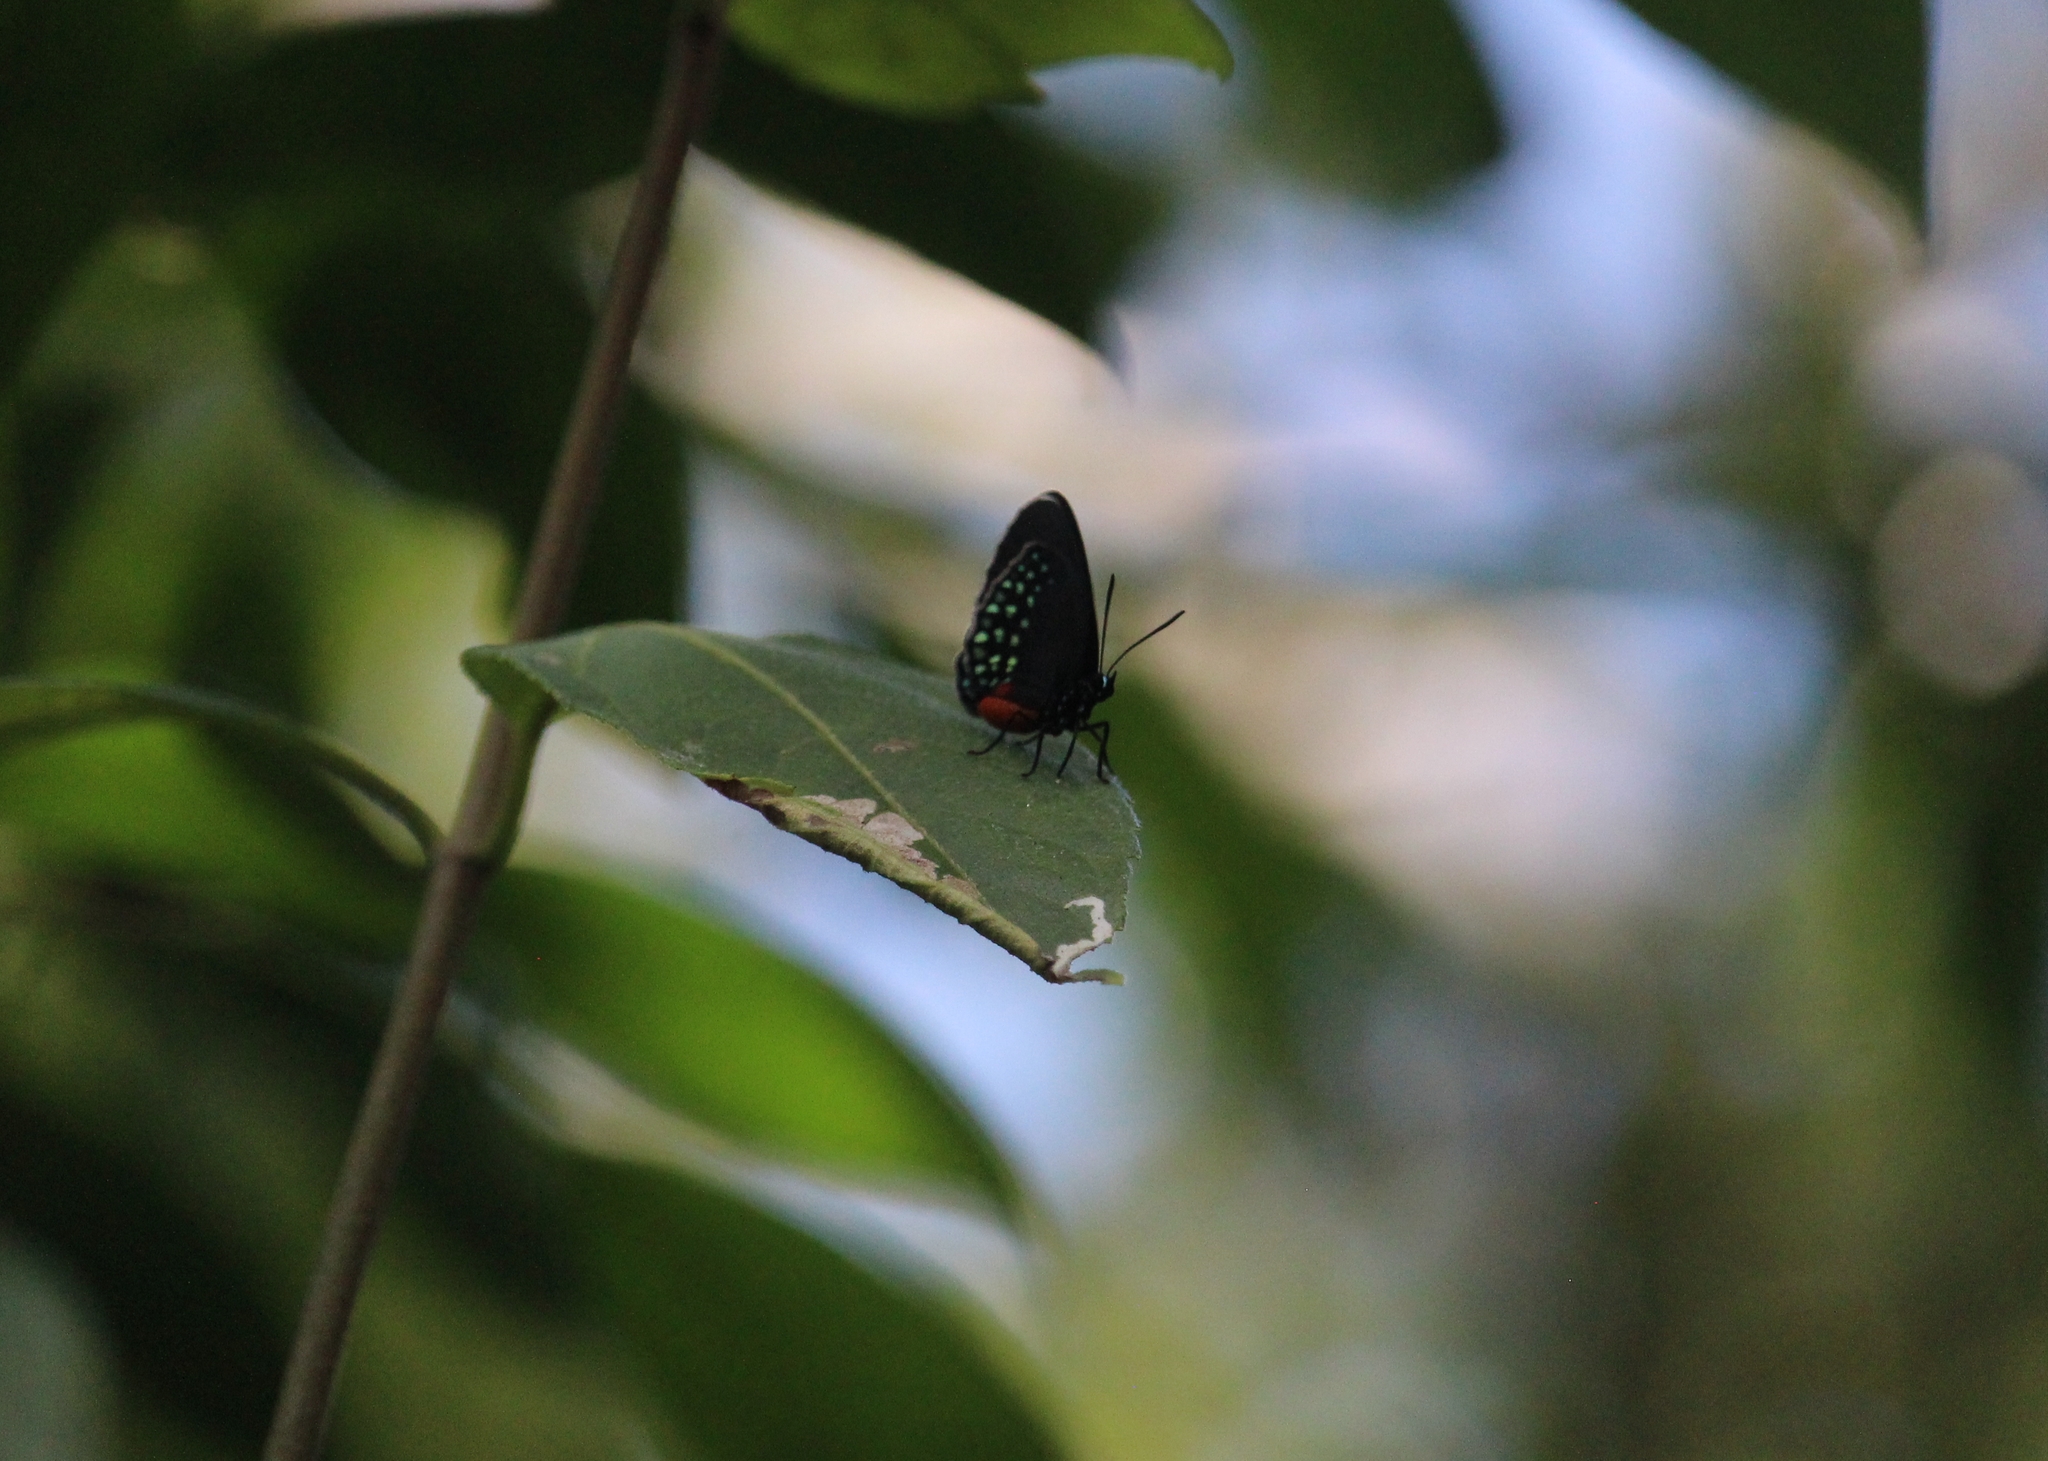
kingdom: Animalia
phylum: Arthropoda
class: Insecta
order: Lepidoptera
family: Lycaenidae
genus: Eumaeus
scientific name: Eumaeus toxea
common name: Mexican cycadian
